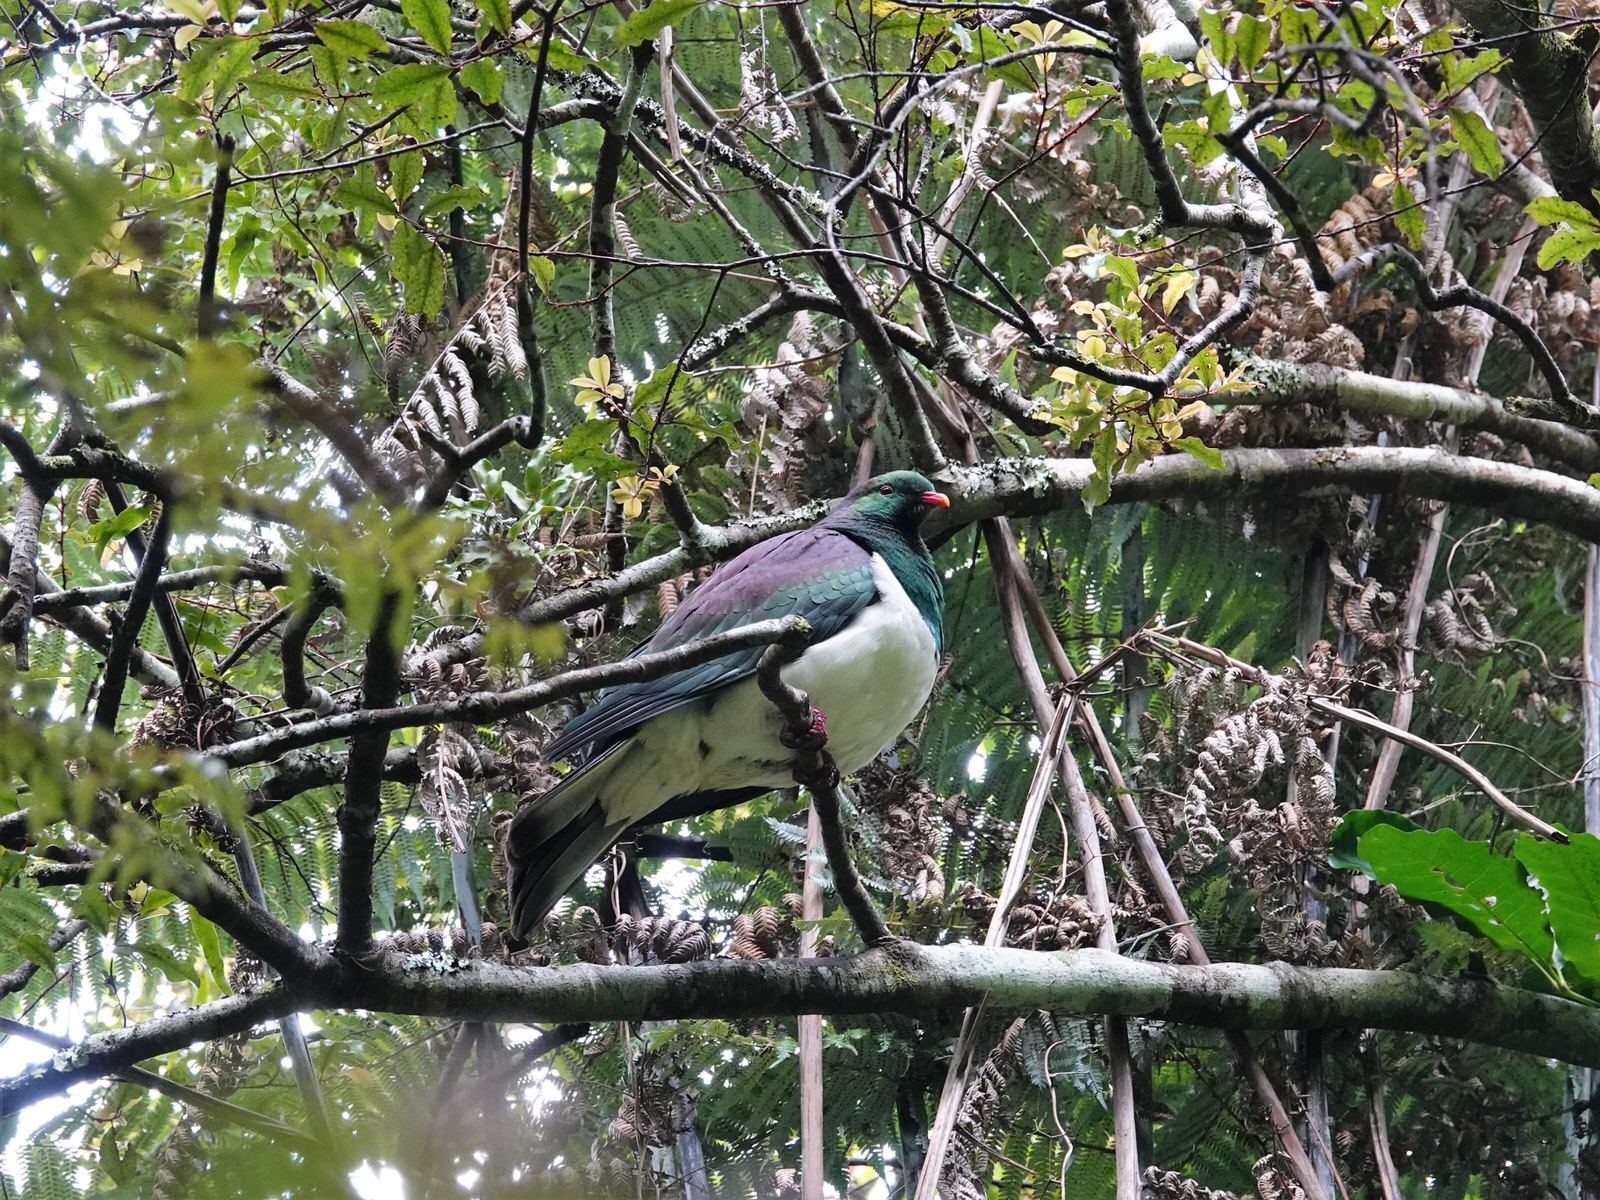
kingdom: Animalia
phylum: Chordata
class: Aves
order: Columbiformes
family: Columbidae
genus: Hemiphaga
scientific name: Hemiphaga novaeseelandiae
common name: New zealand pigeon
